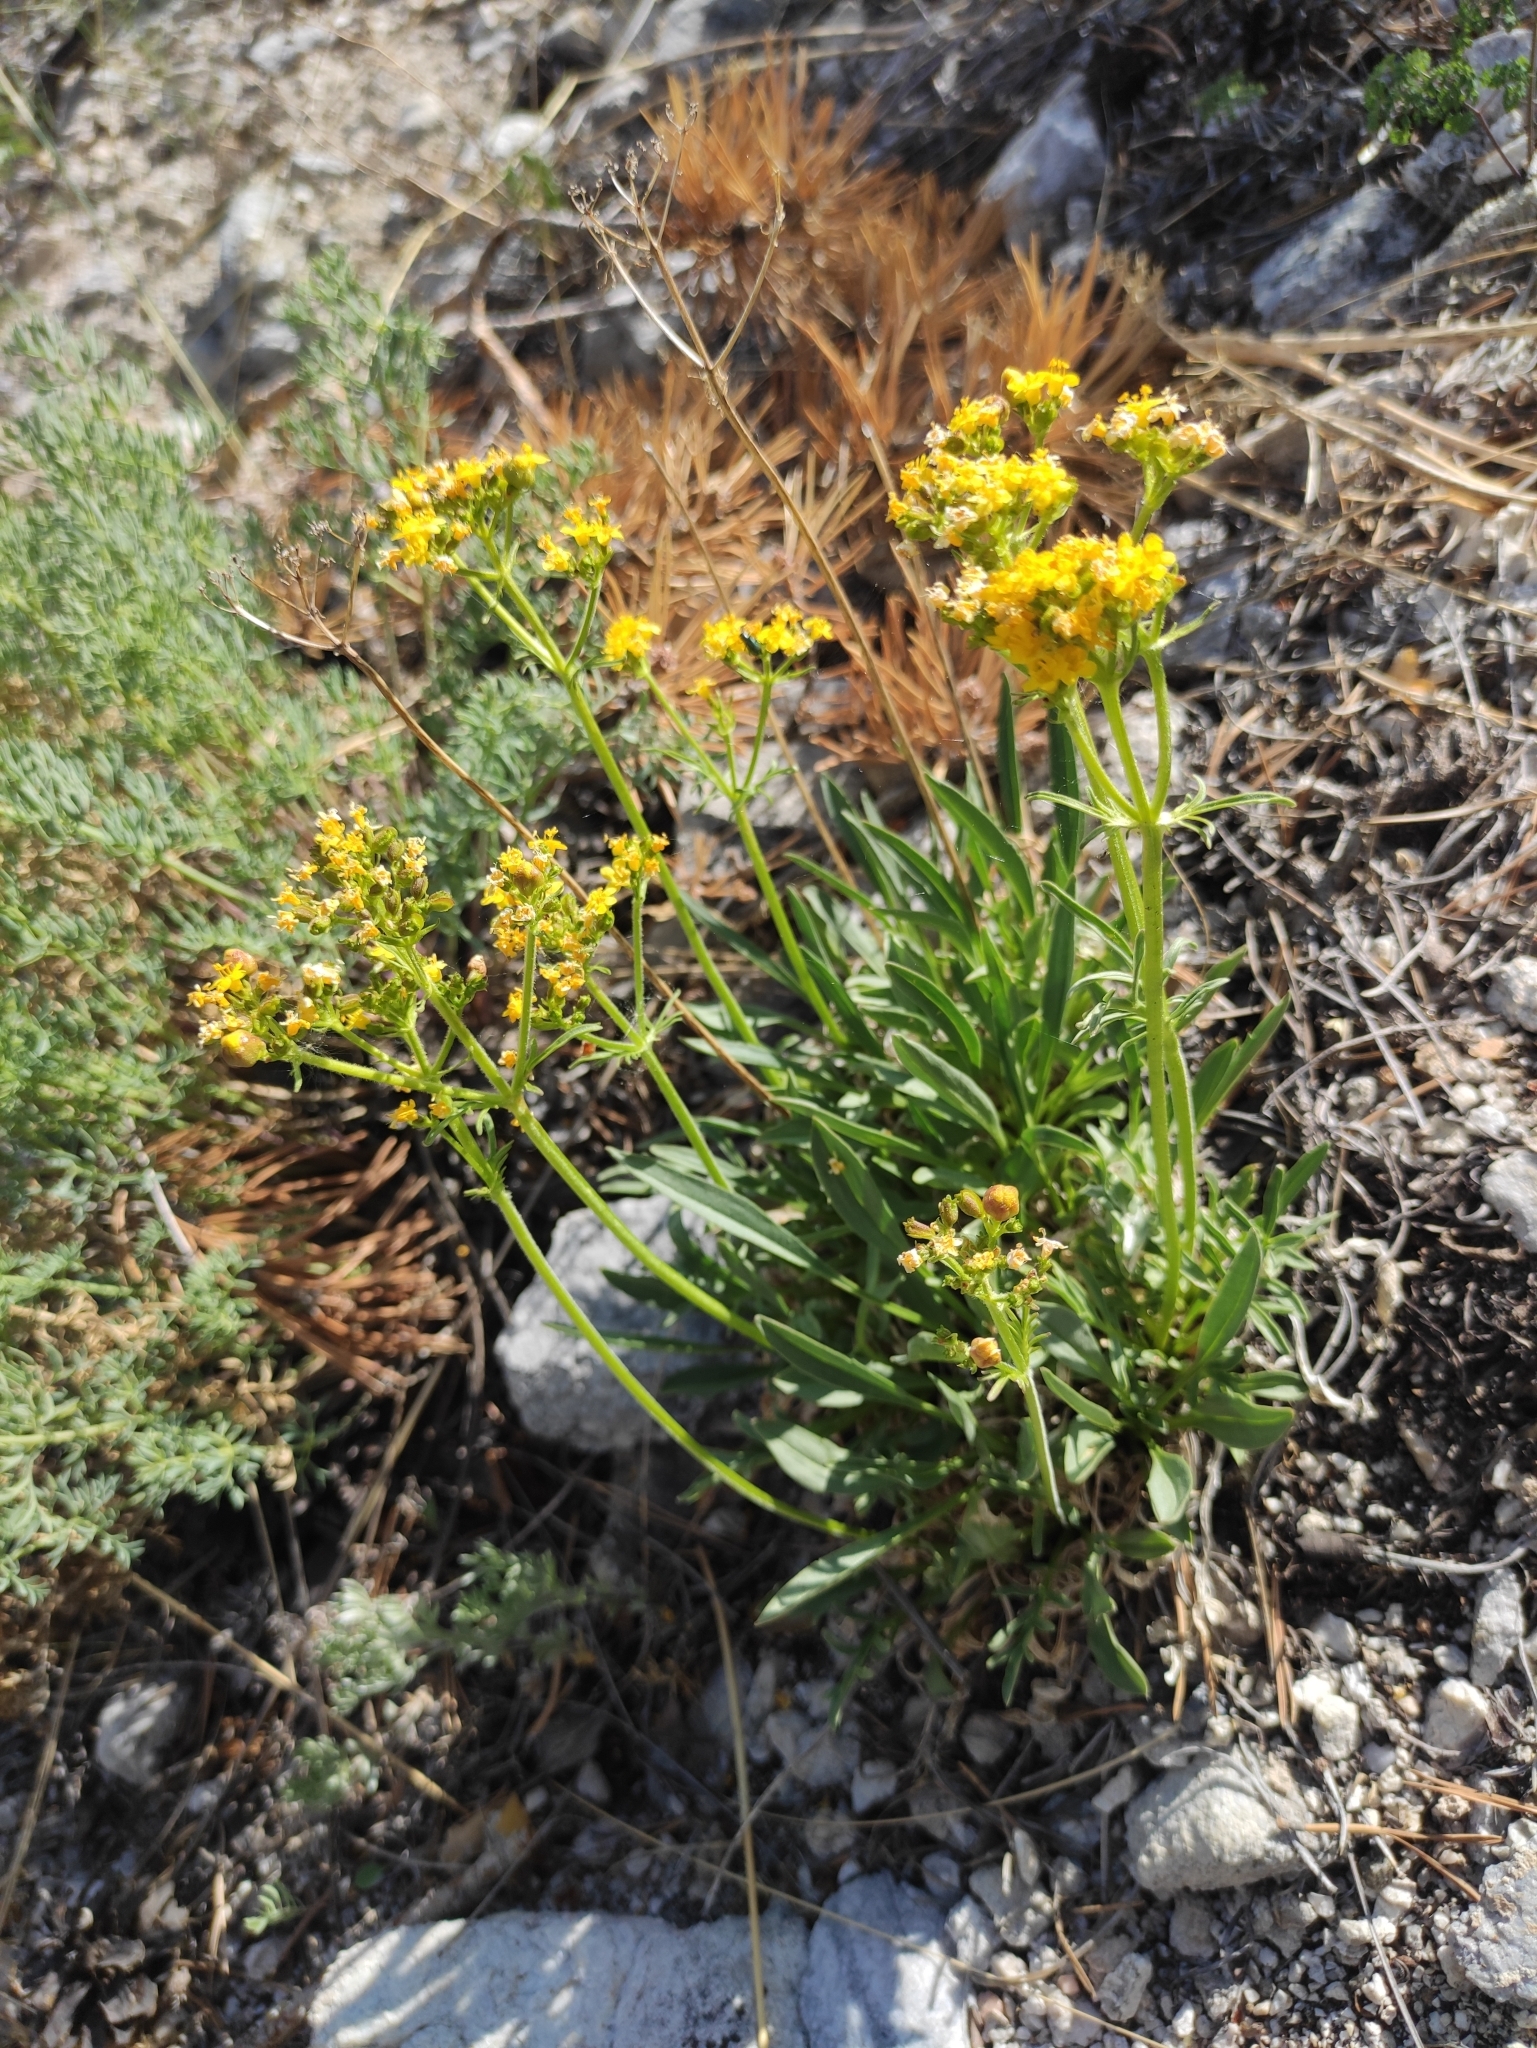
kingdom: Plantae
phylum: Tracheophyta
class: Magnoliopsida
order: Dipsacales
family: Caprifoliaceae
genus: Patrinia
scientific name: Patrinia sibirica
